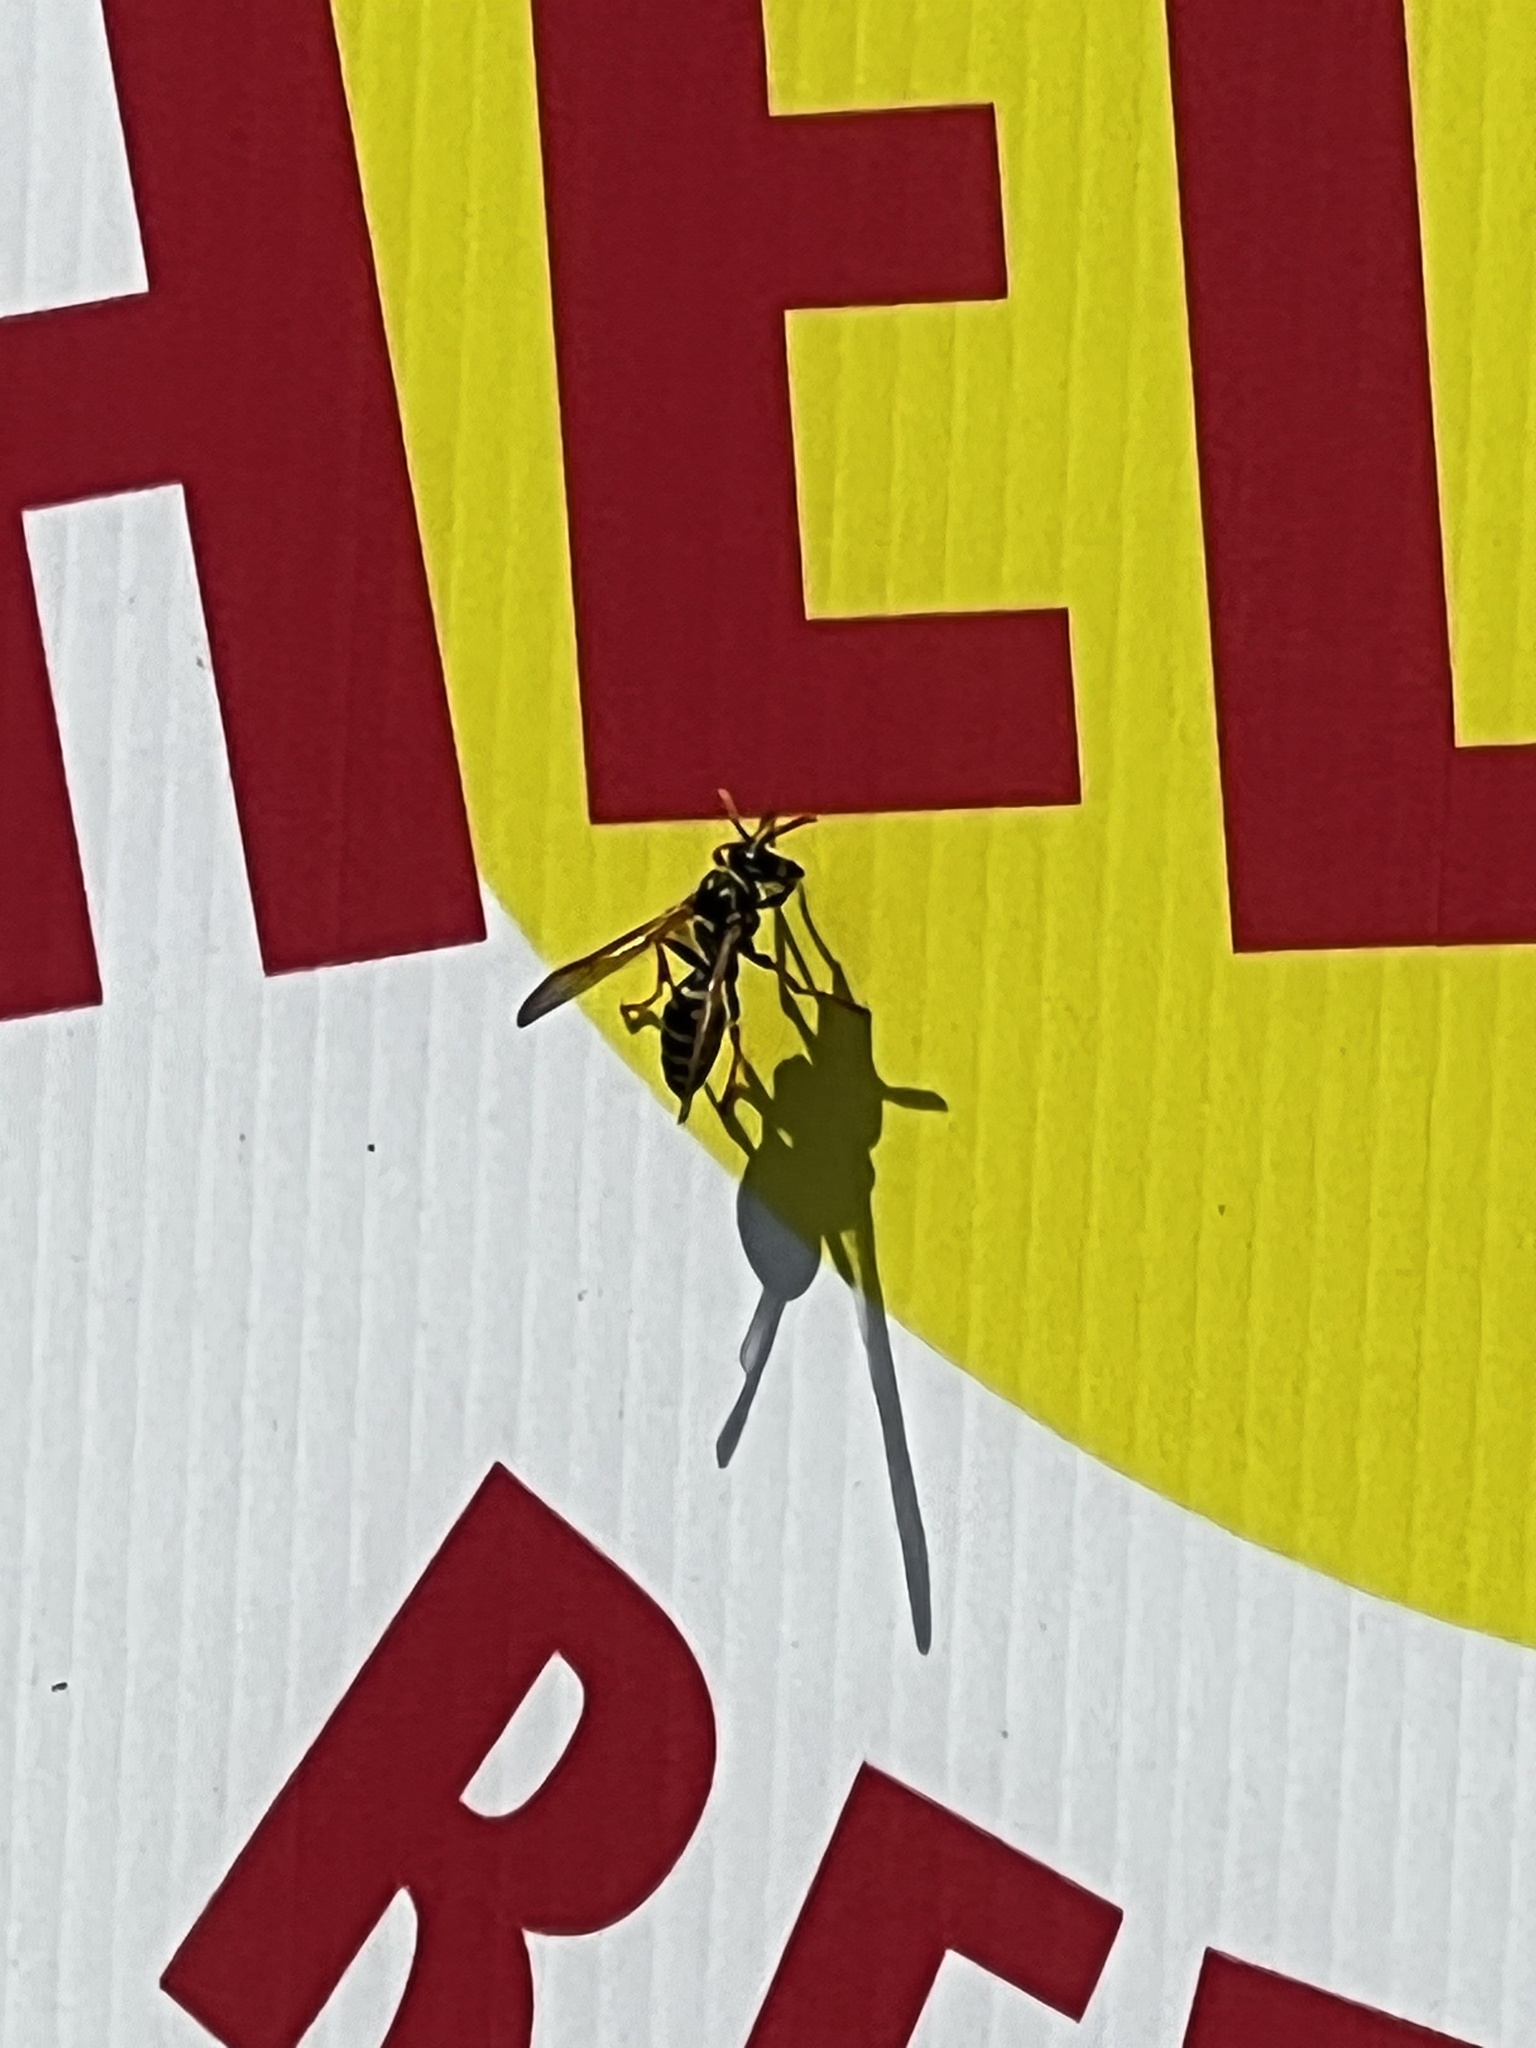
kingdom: Animalia
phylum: Arthropoda
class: Insecta
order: Hymenoptera
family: Eumenidae
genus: Polistes
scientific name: Polistes dominula
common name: Paper wasp
